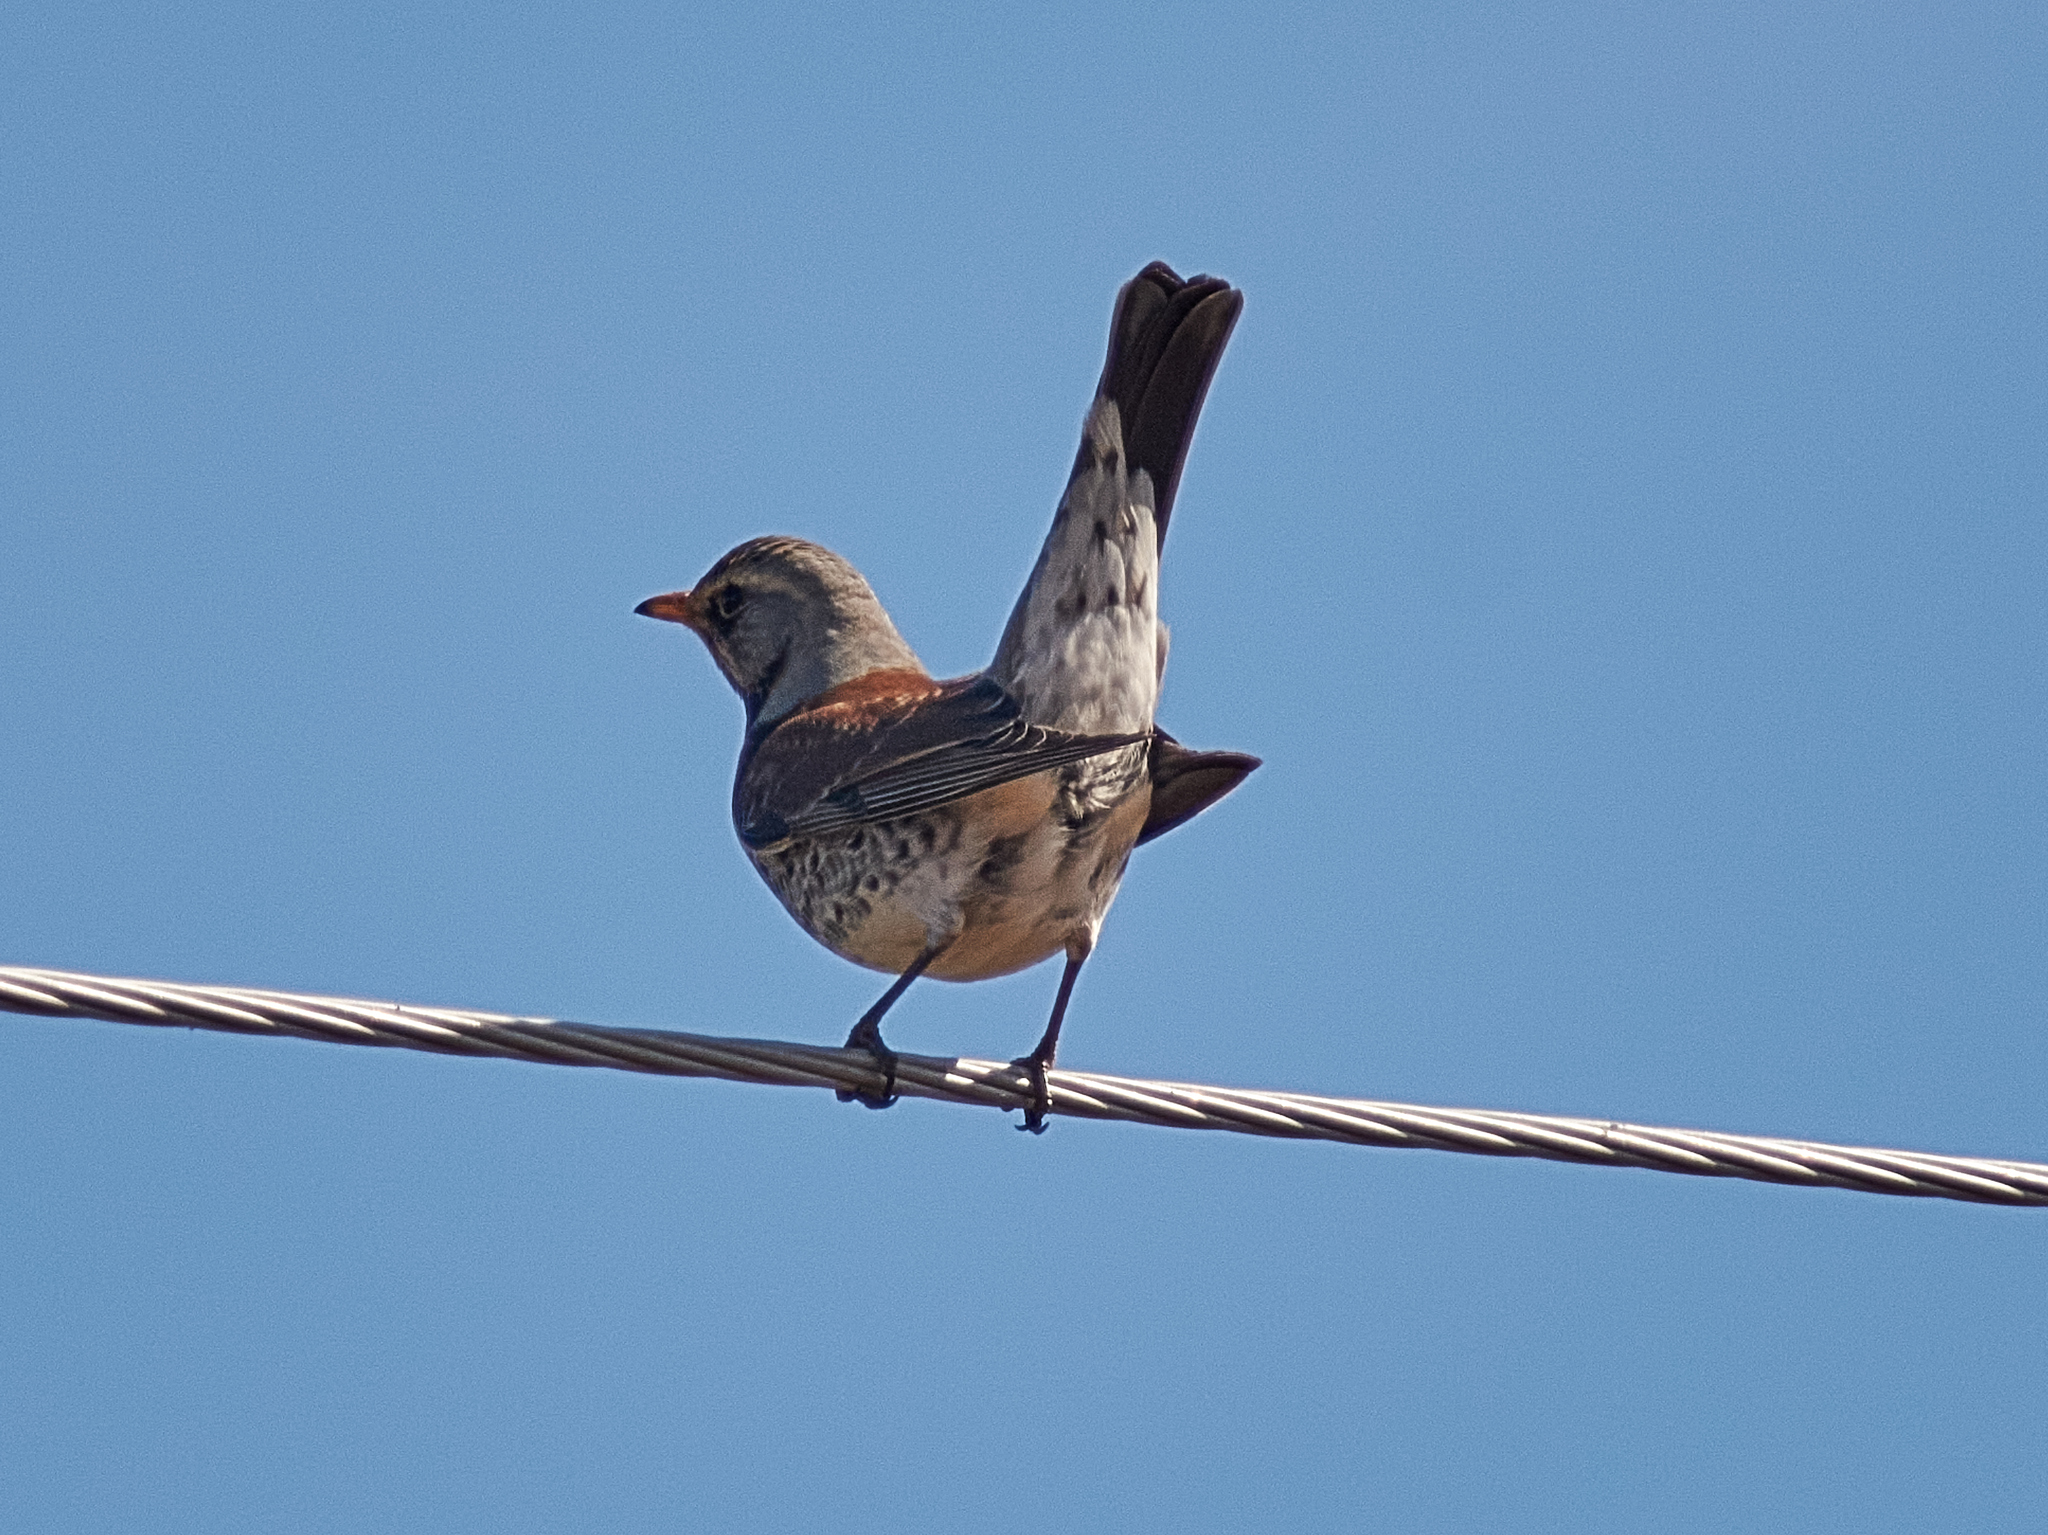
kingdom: Animalia
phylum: Chordata
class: Aves
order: Passeriformes
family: Turdidae
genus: Turdus
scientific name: Turdus pilaris
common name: Fieldfare
